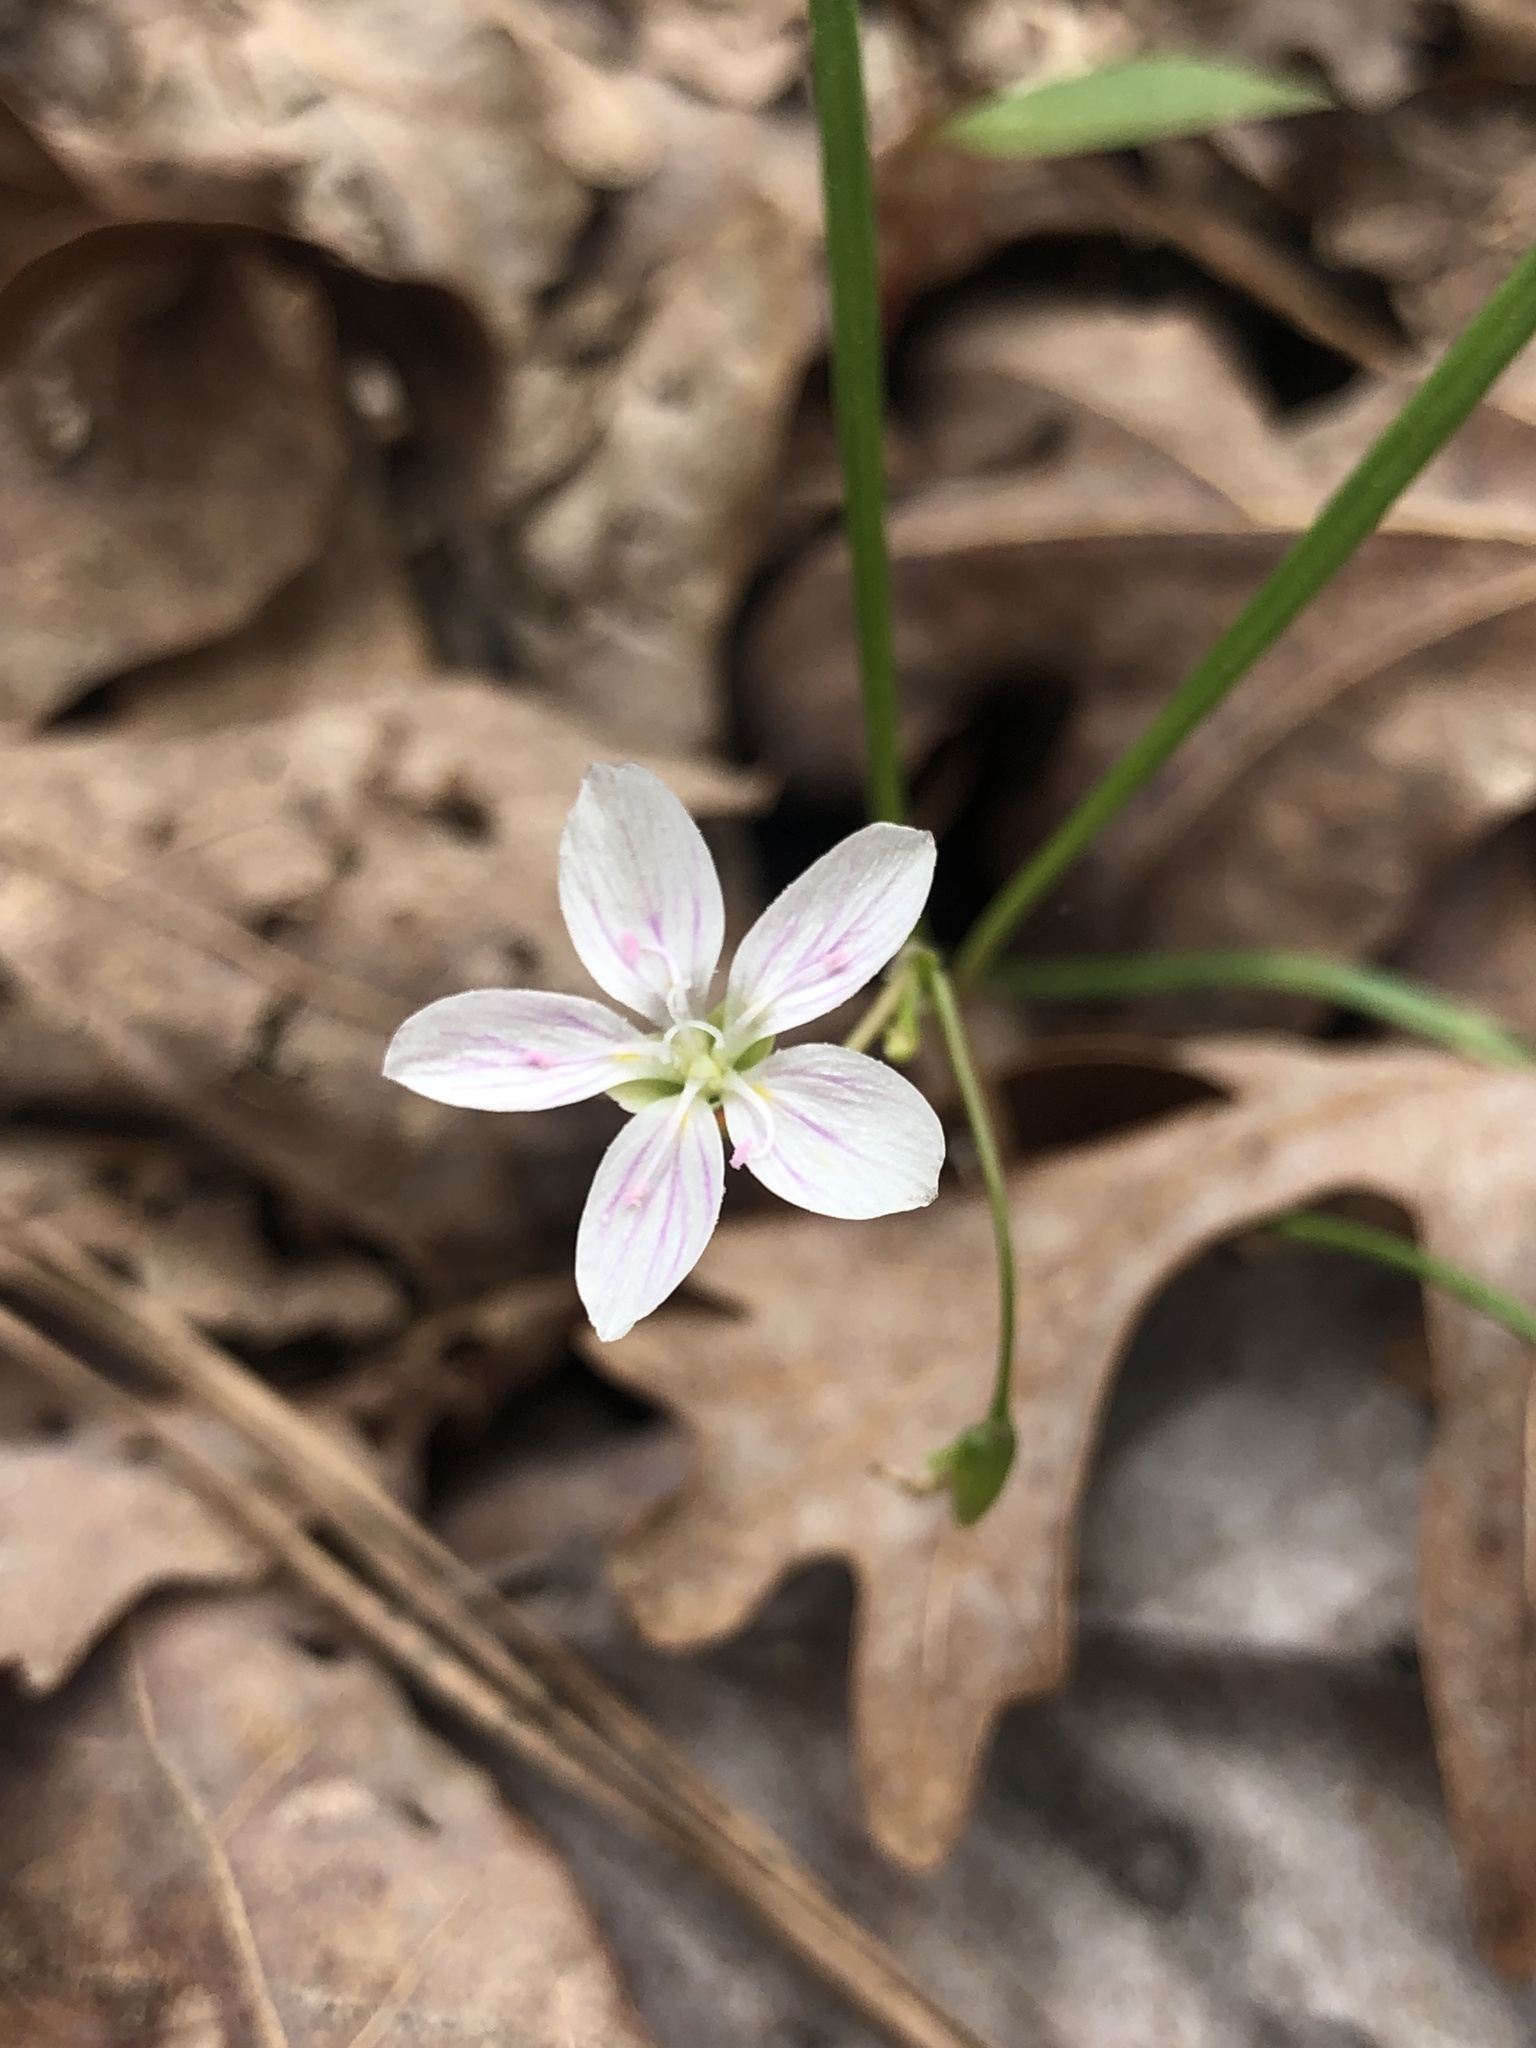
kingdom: Plantae
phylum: Tracheophyta
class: Magnoliopsida
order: Caryophyllales
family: Montiaceae
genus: Claytonia
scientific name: Claytonia virginica
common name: Virginia springbeauty
